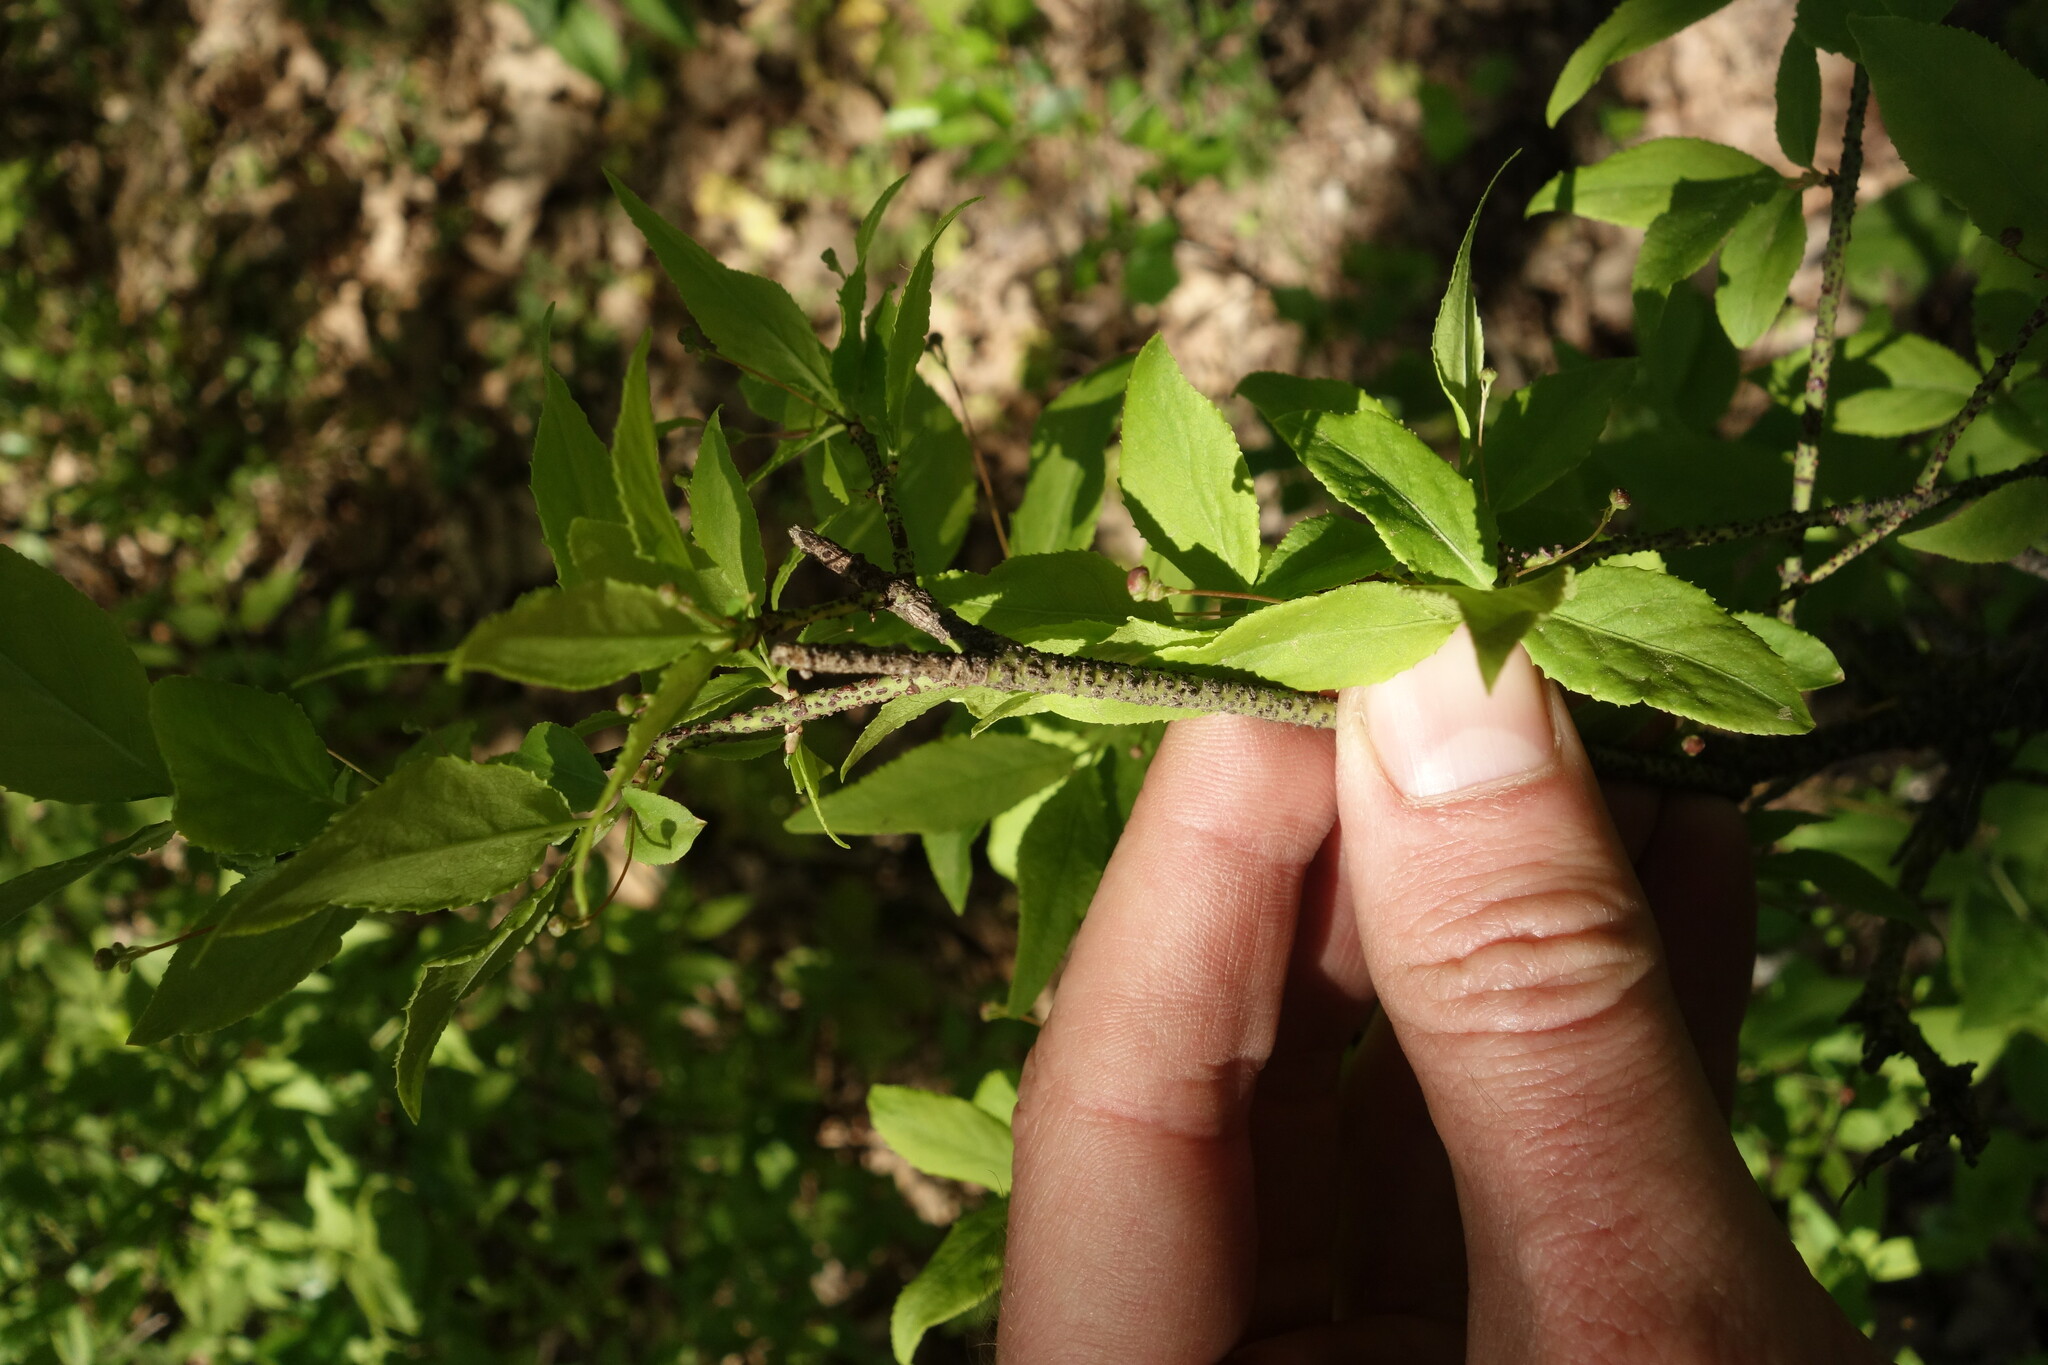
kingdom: Plantae
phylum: Tracheophyta
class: Magnoliopsida
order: Celastrales
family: Celastraceae
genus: Euonymus
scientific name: Euonymus verrucosus
